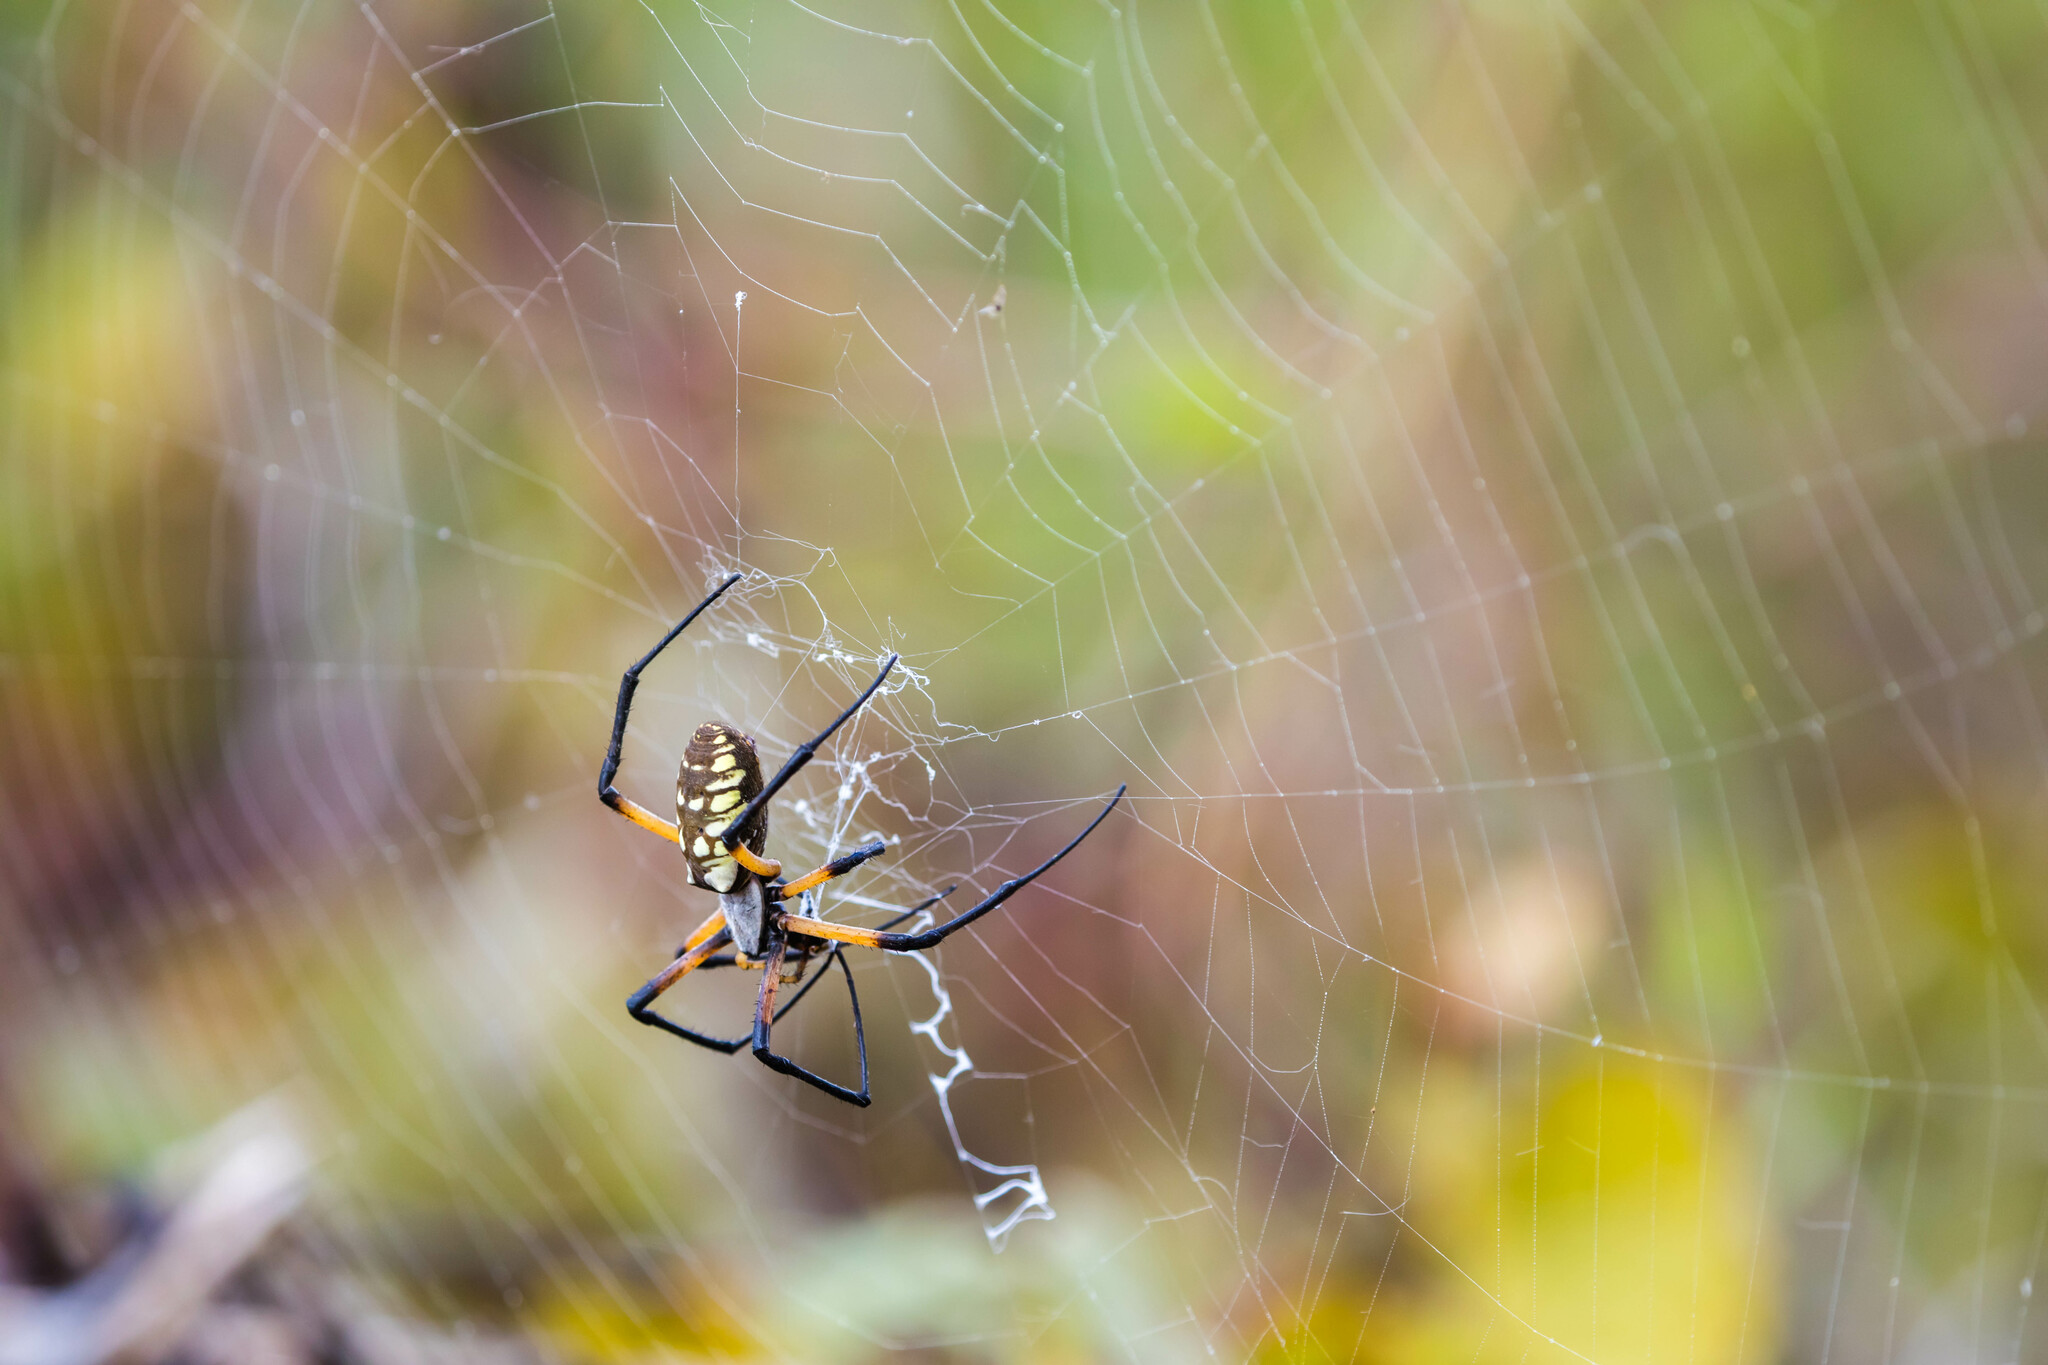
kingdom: Animalia
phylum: Arthropoda
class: Arachnida
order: Araneae
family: Araneidae
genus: Argiope
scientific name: Argiope aurantia
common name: Orb weavers
